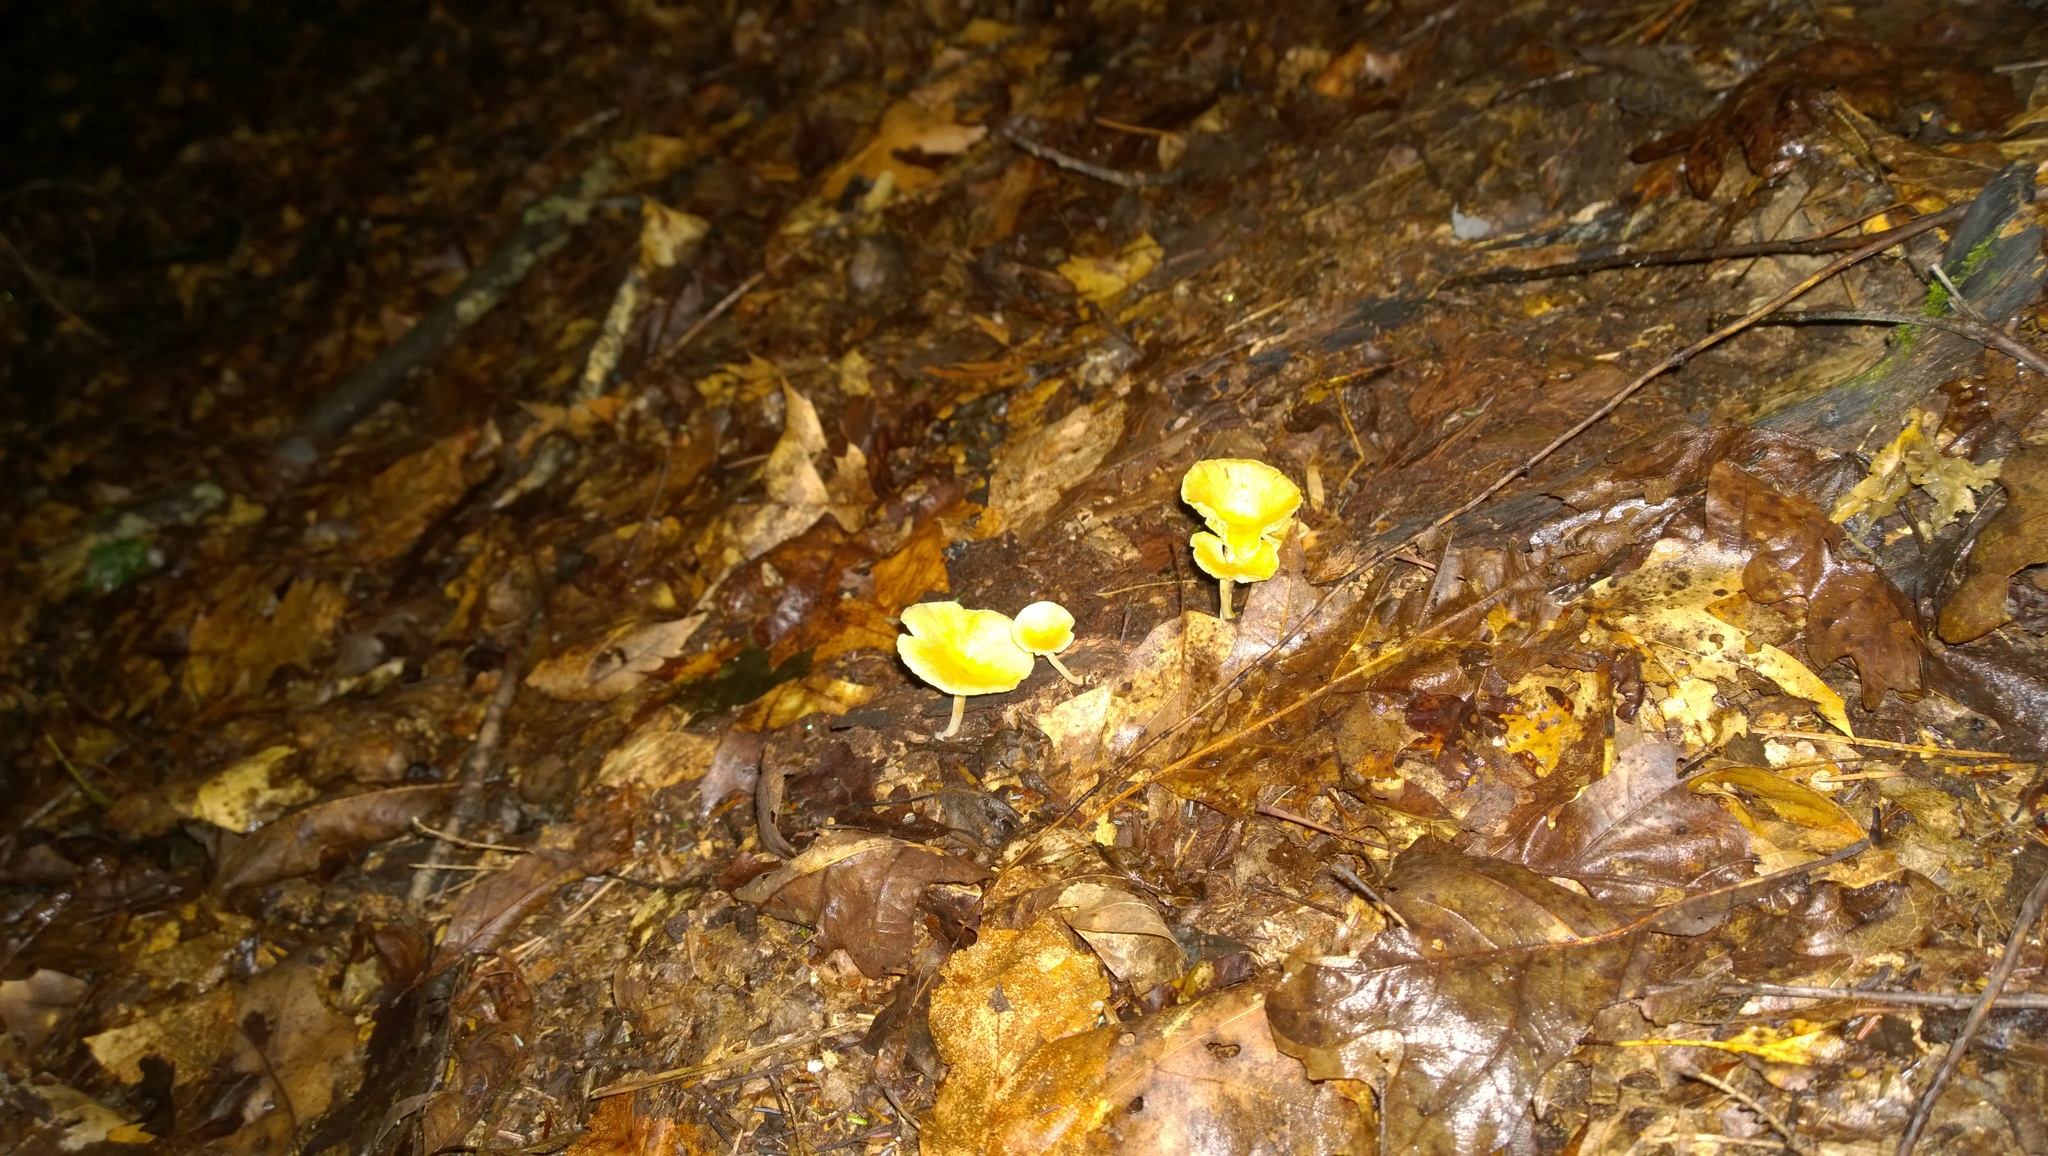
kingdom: Fungi
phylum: Basidiomycota
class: Agaricomycetes
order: Agaricales
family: Marasmiaceae
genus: Gerronema
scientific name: Gerronema strombodes
